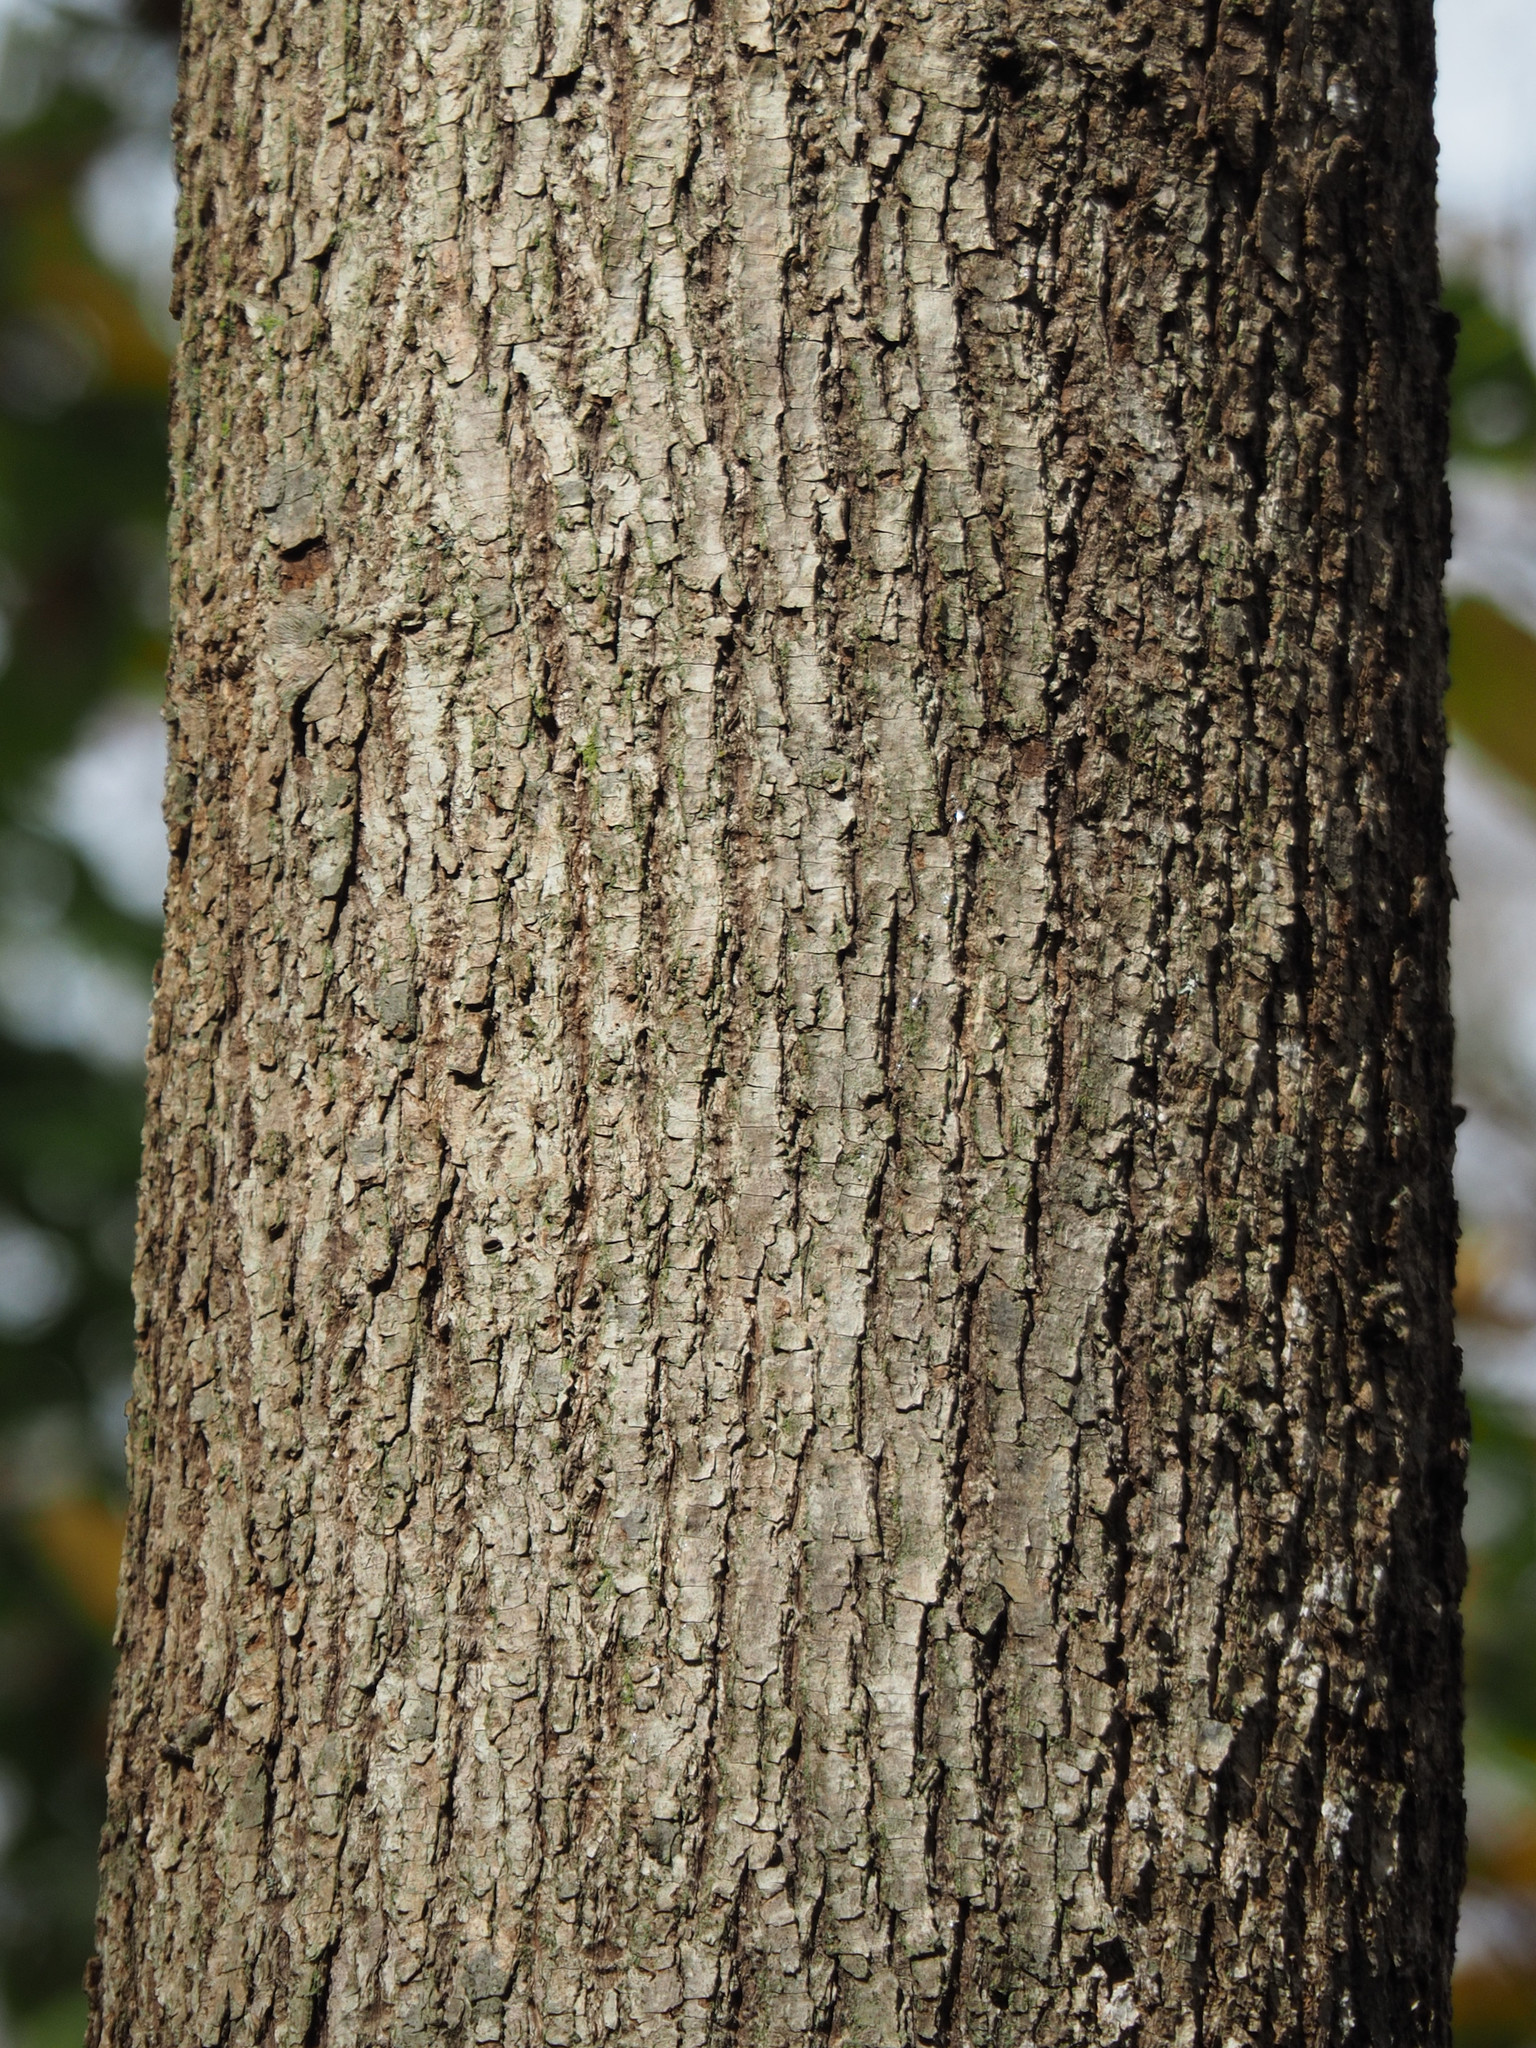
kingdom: Plantae
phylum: Tracheophyta
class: Magnoliopsida
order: Malvales
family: Malvaceae
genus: Tilia
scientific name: Tilia americana
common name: Basswood
